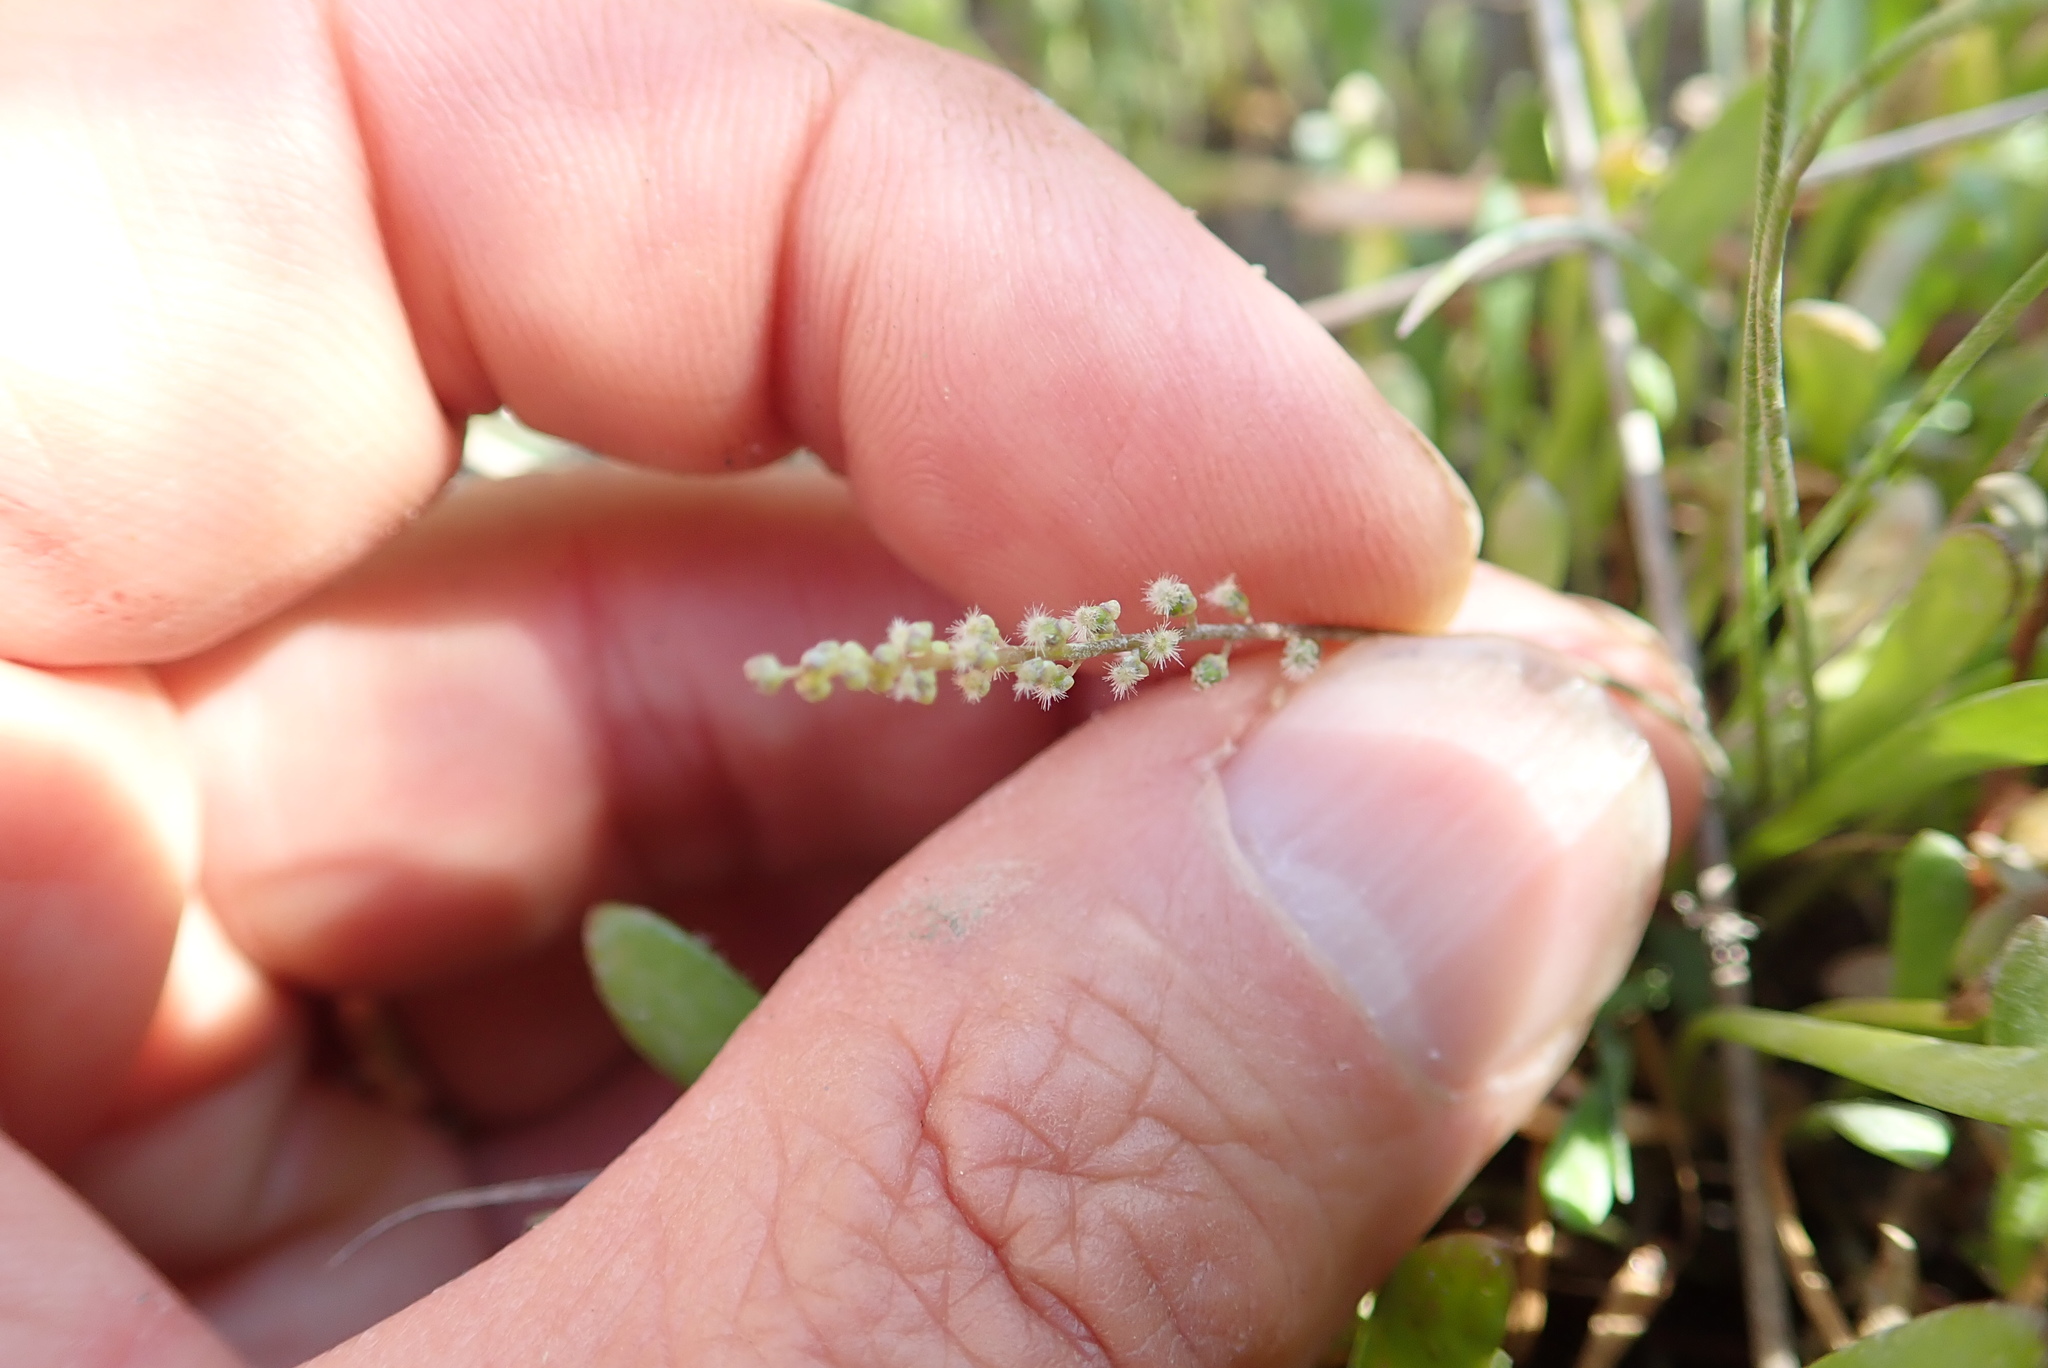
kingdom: Plantae
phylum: Tracheophyta
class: Liliopsida
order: Alismatales
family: Juncaginaceae
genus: Triglochin
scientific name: Triglochin striata
